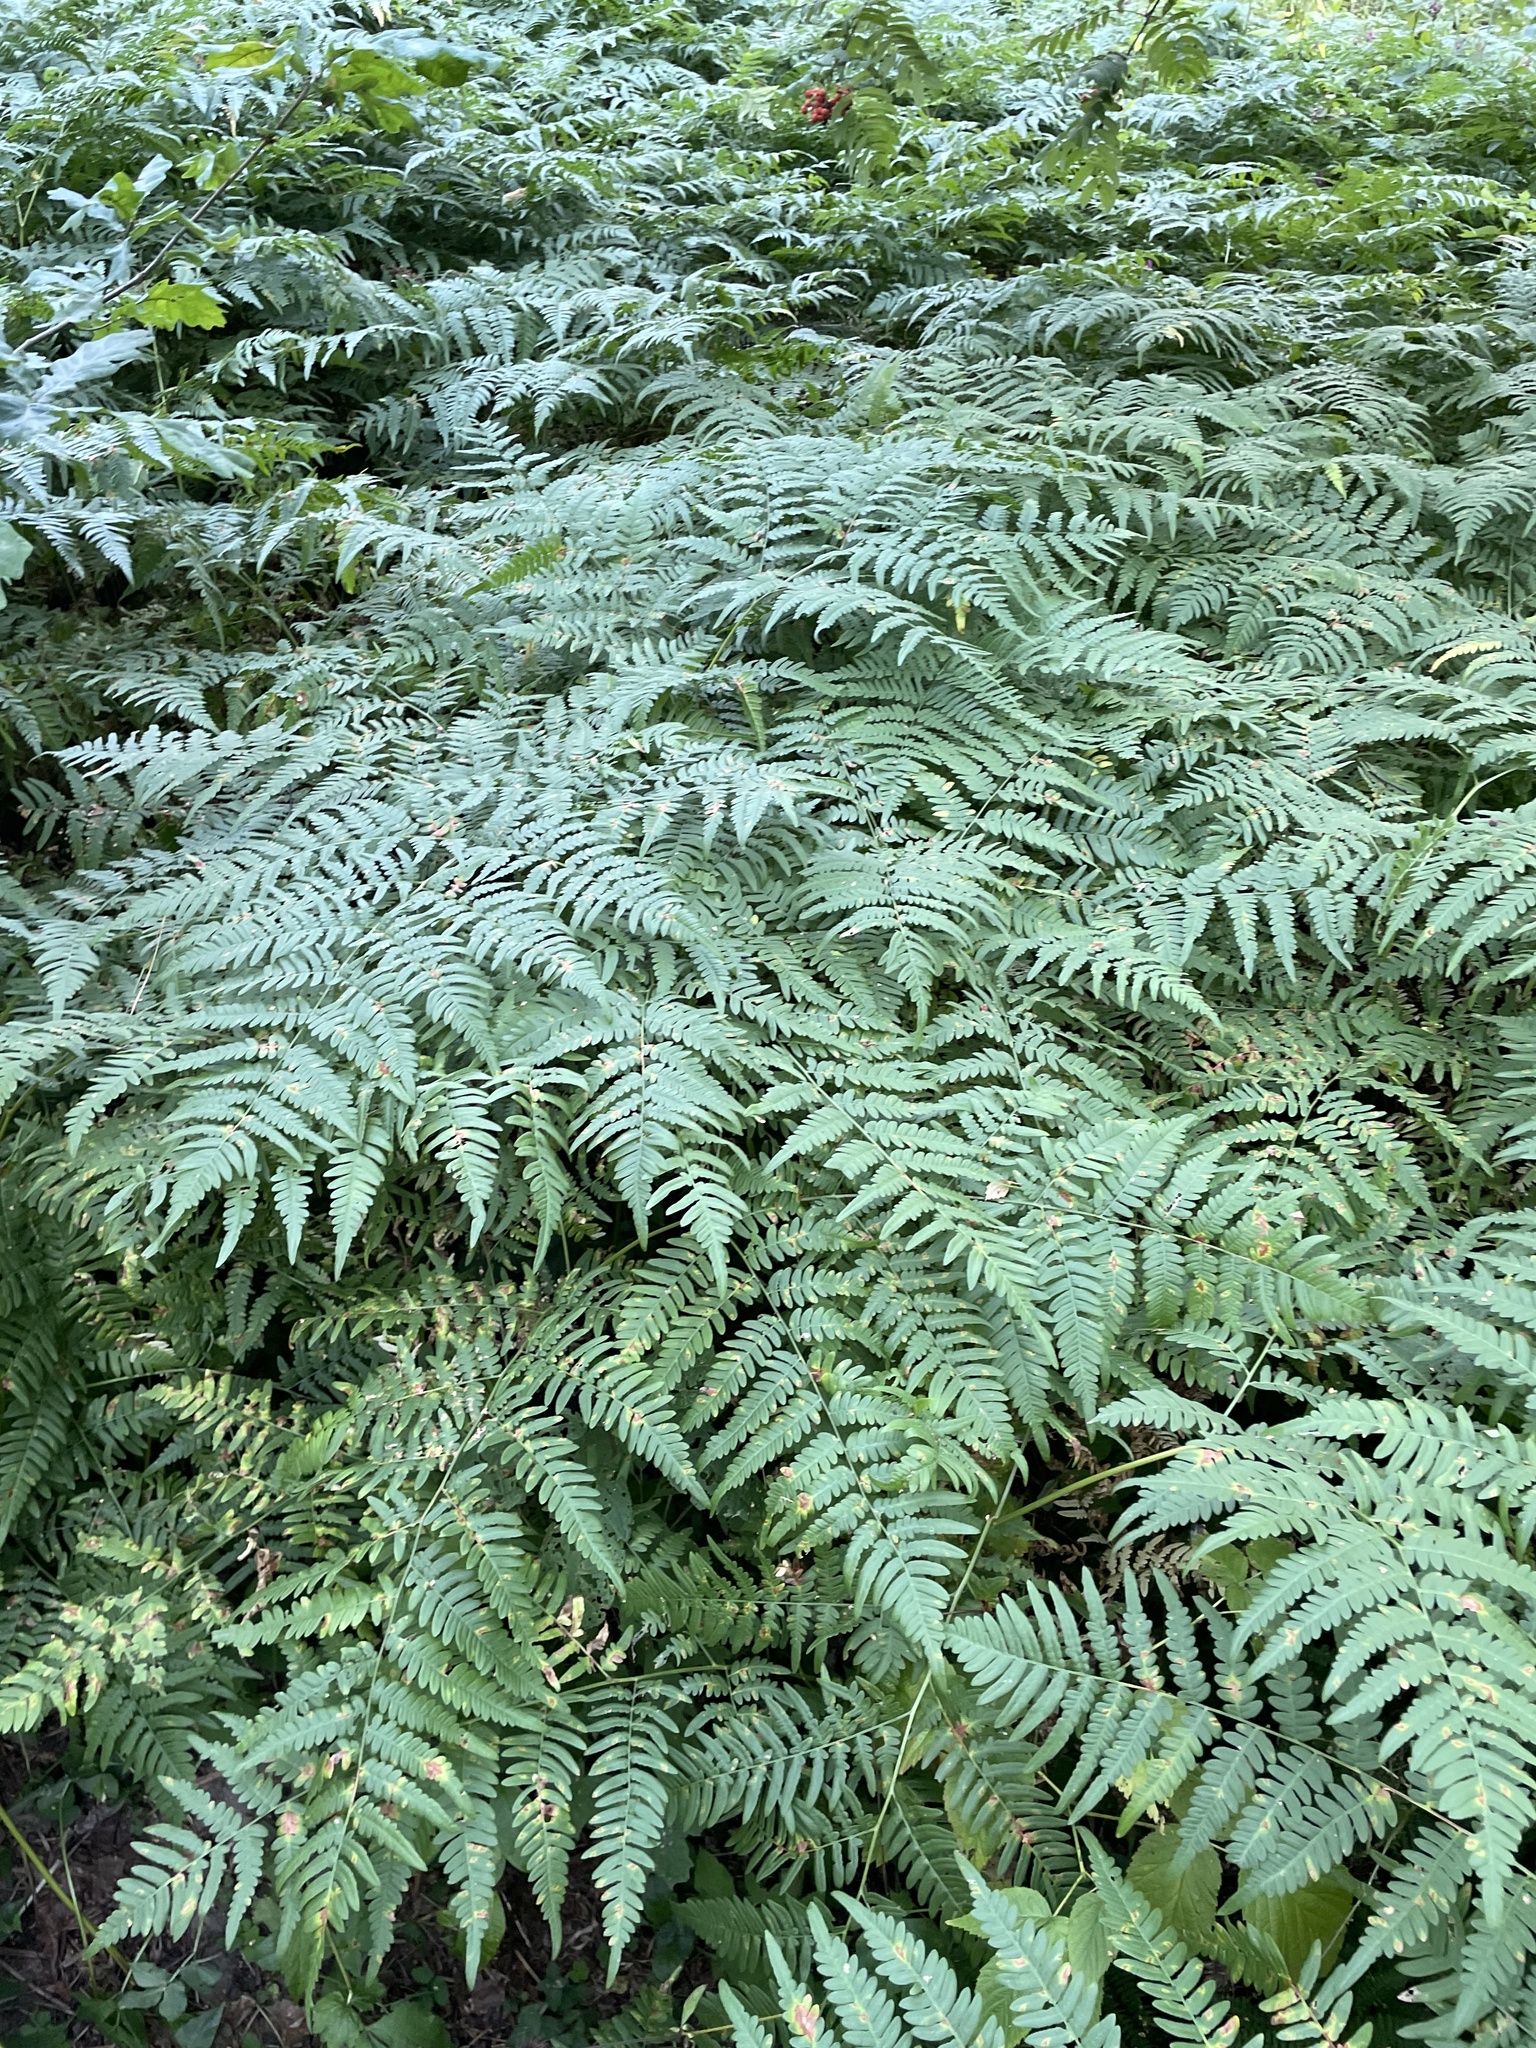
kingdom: Plantae
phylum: Tracheophyta
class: Polypodiopsida
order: Polypodiales
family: Dennstaedtiaceae
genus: Pteridium
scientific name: Pteridium aquilinum
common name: Bracken
